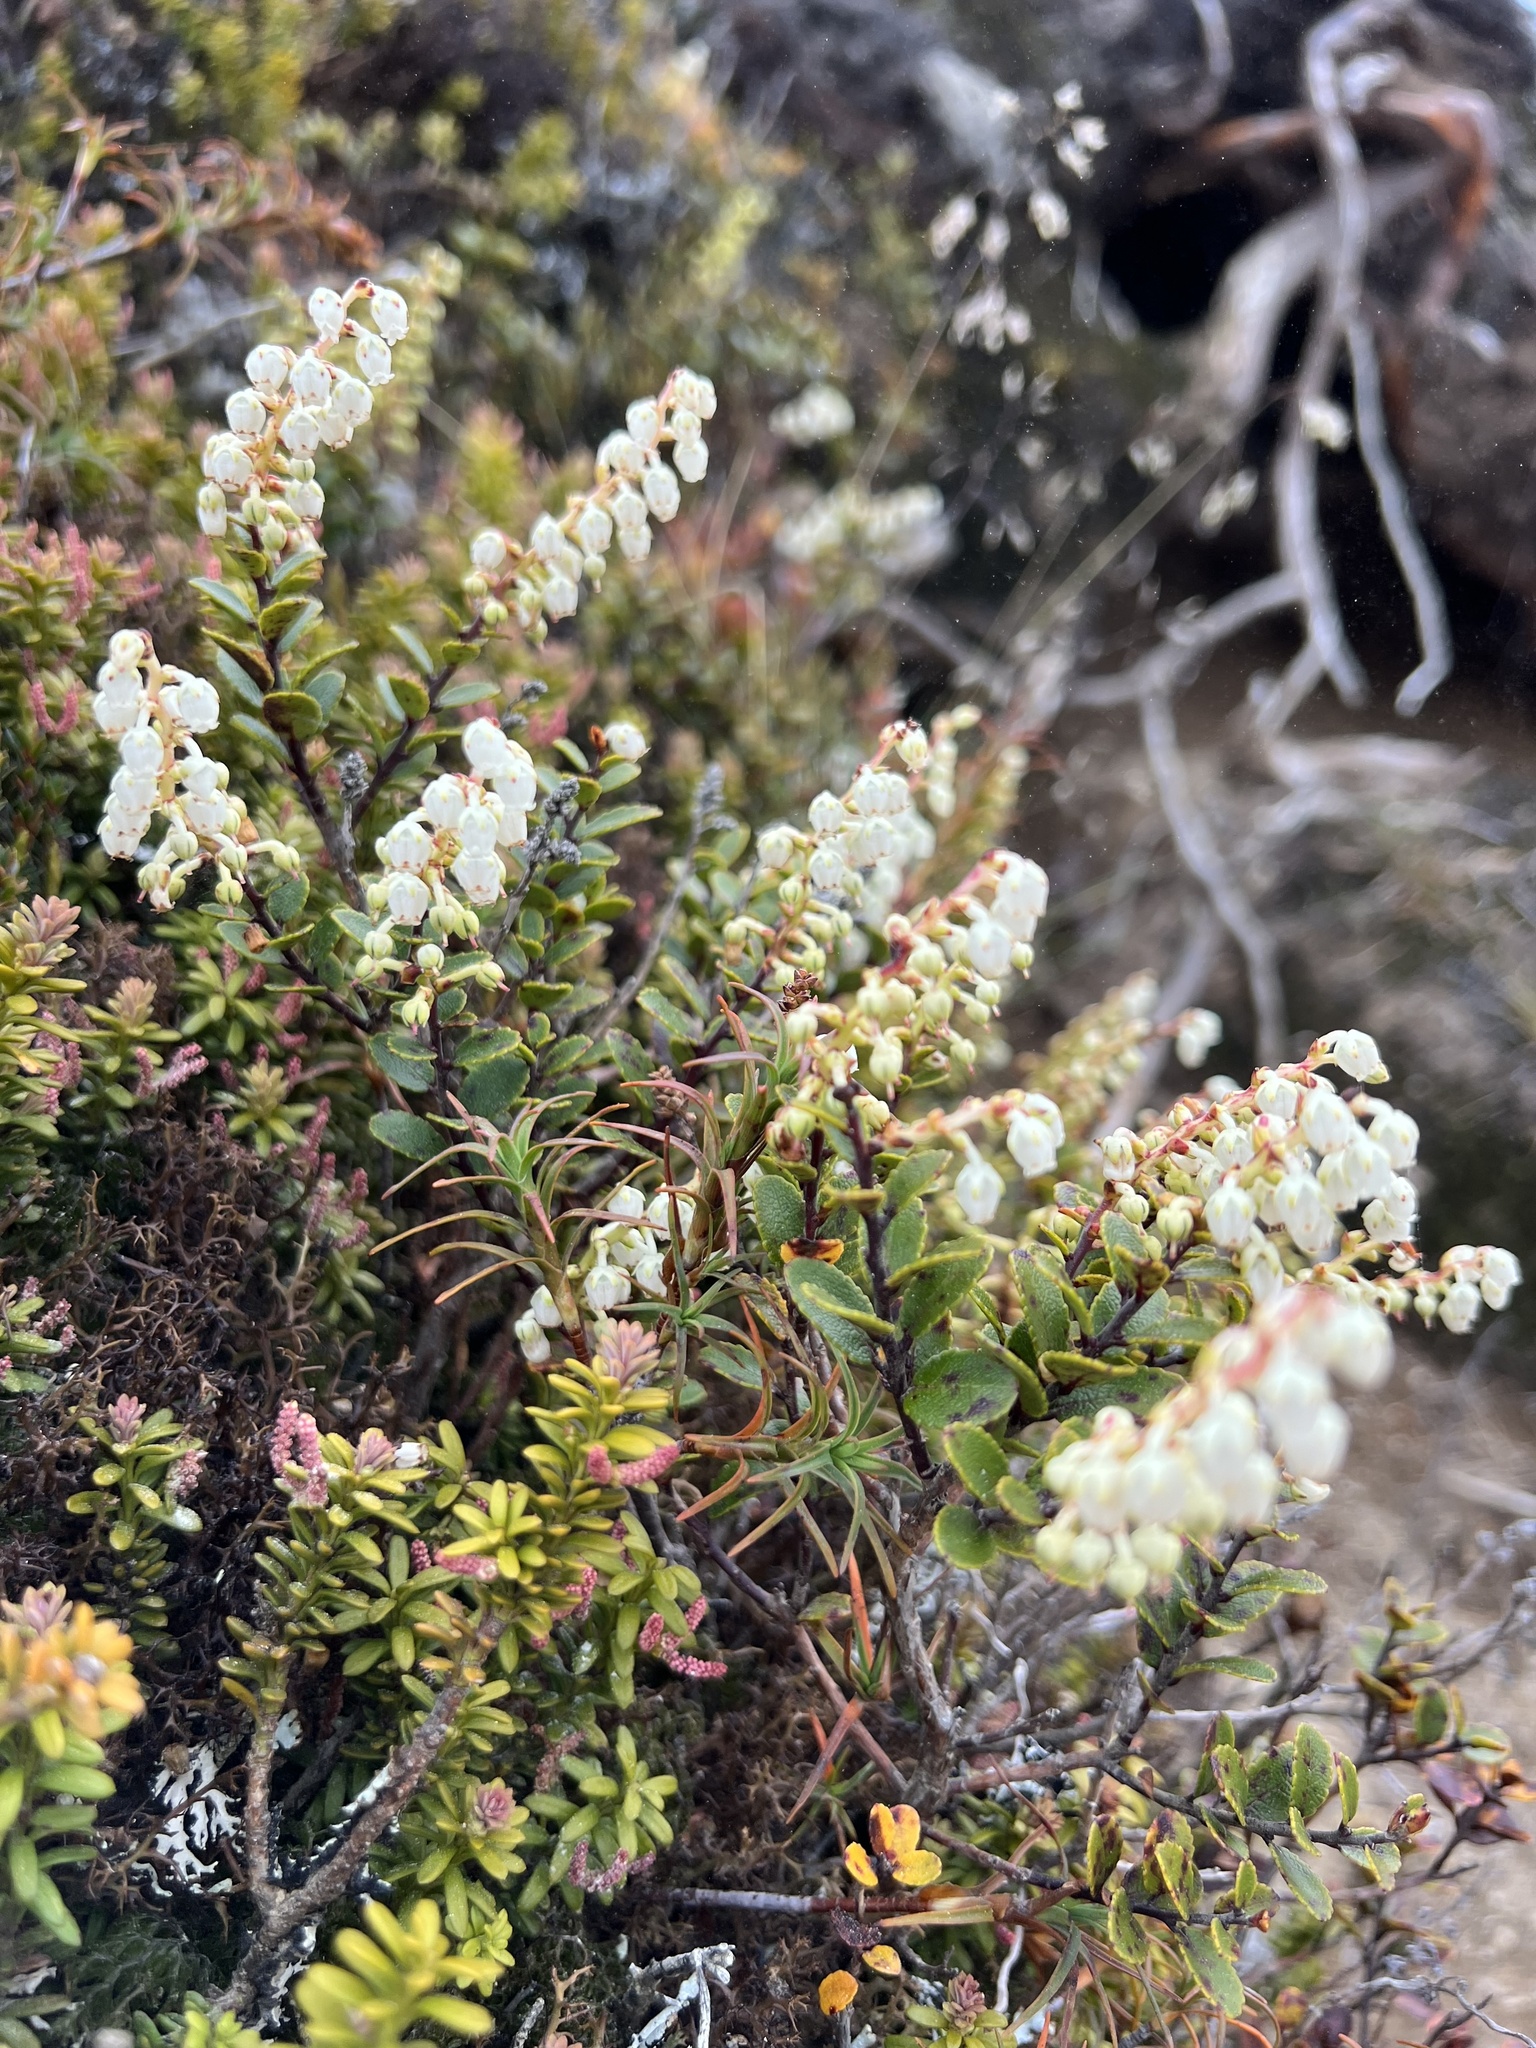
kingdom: Plantae
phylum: Tracheophyta
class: Magnoliopsida
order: Ericales
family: Ericaceae
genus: Gaultheria
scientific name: Gaultheria colensoi
